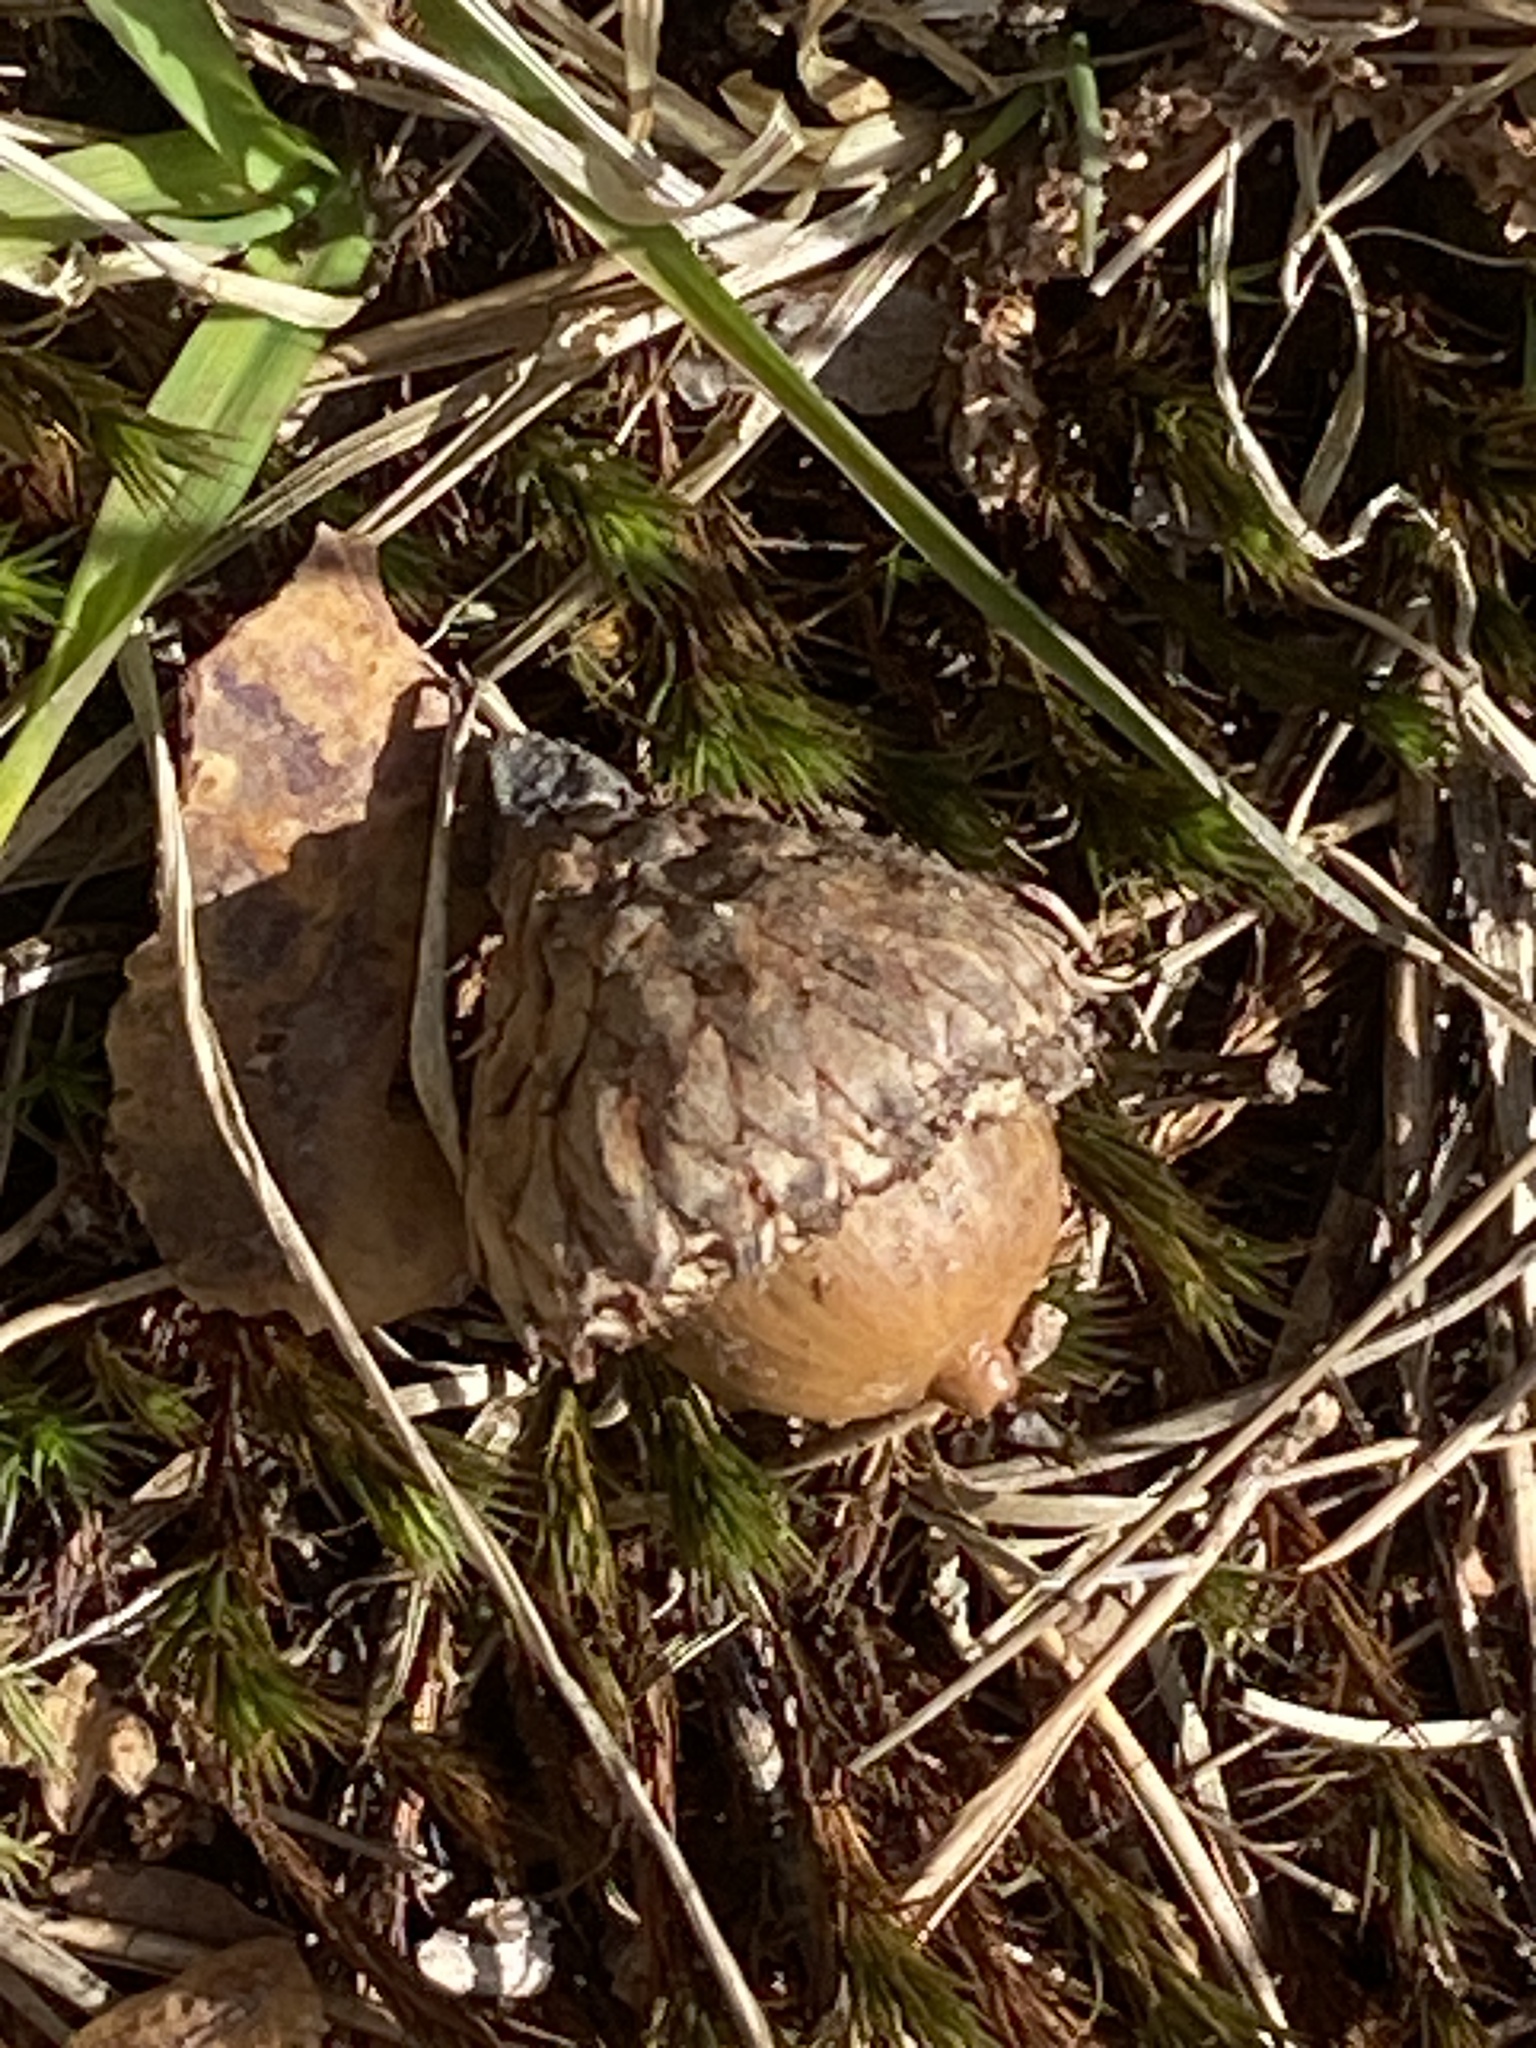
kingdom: Plantae
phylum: Tracheophyta
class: Magnoliopsida
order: Fagales
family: Fagaceae
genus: Quercus
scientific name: Quercus velutina
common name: Black oak
